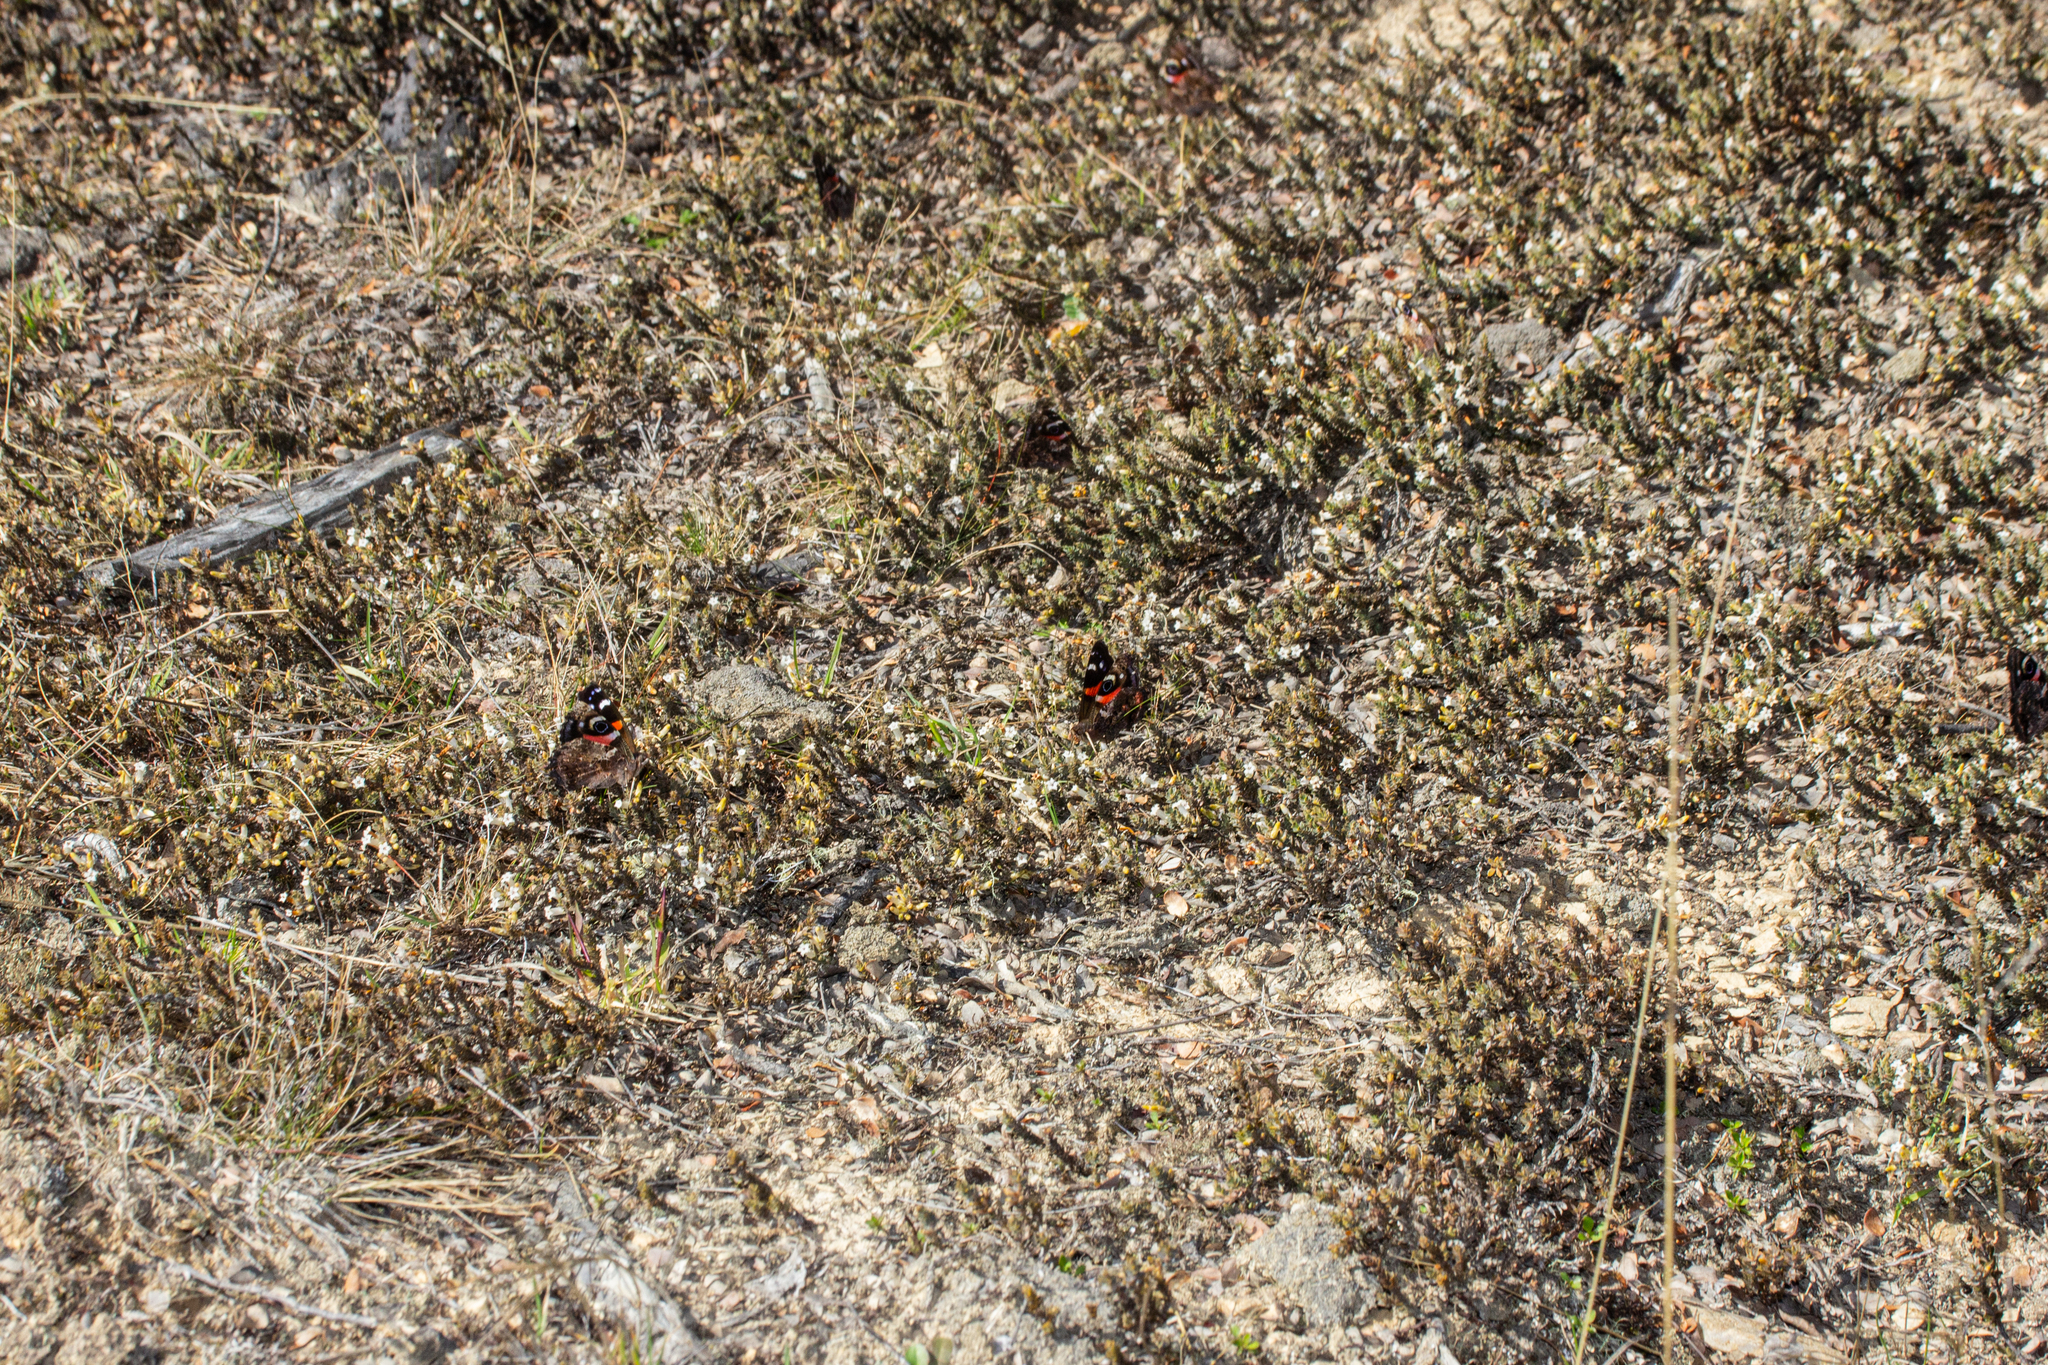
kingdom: Animalia
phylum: Arthropoda
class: Insecta
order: Lepidoptera
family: Nymphalidae
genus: Vanessa
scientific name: Vanessa gonerilla
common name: New zealand red admiral
